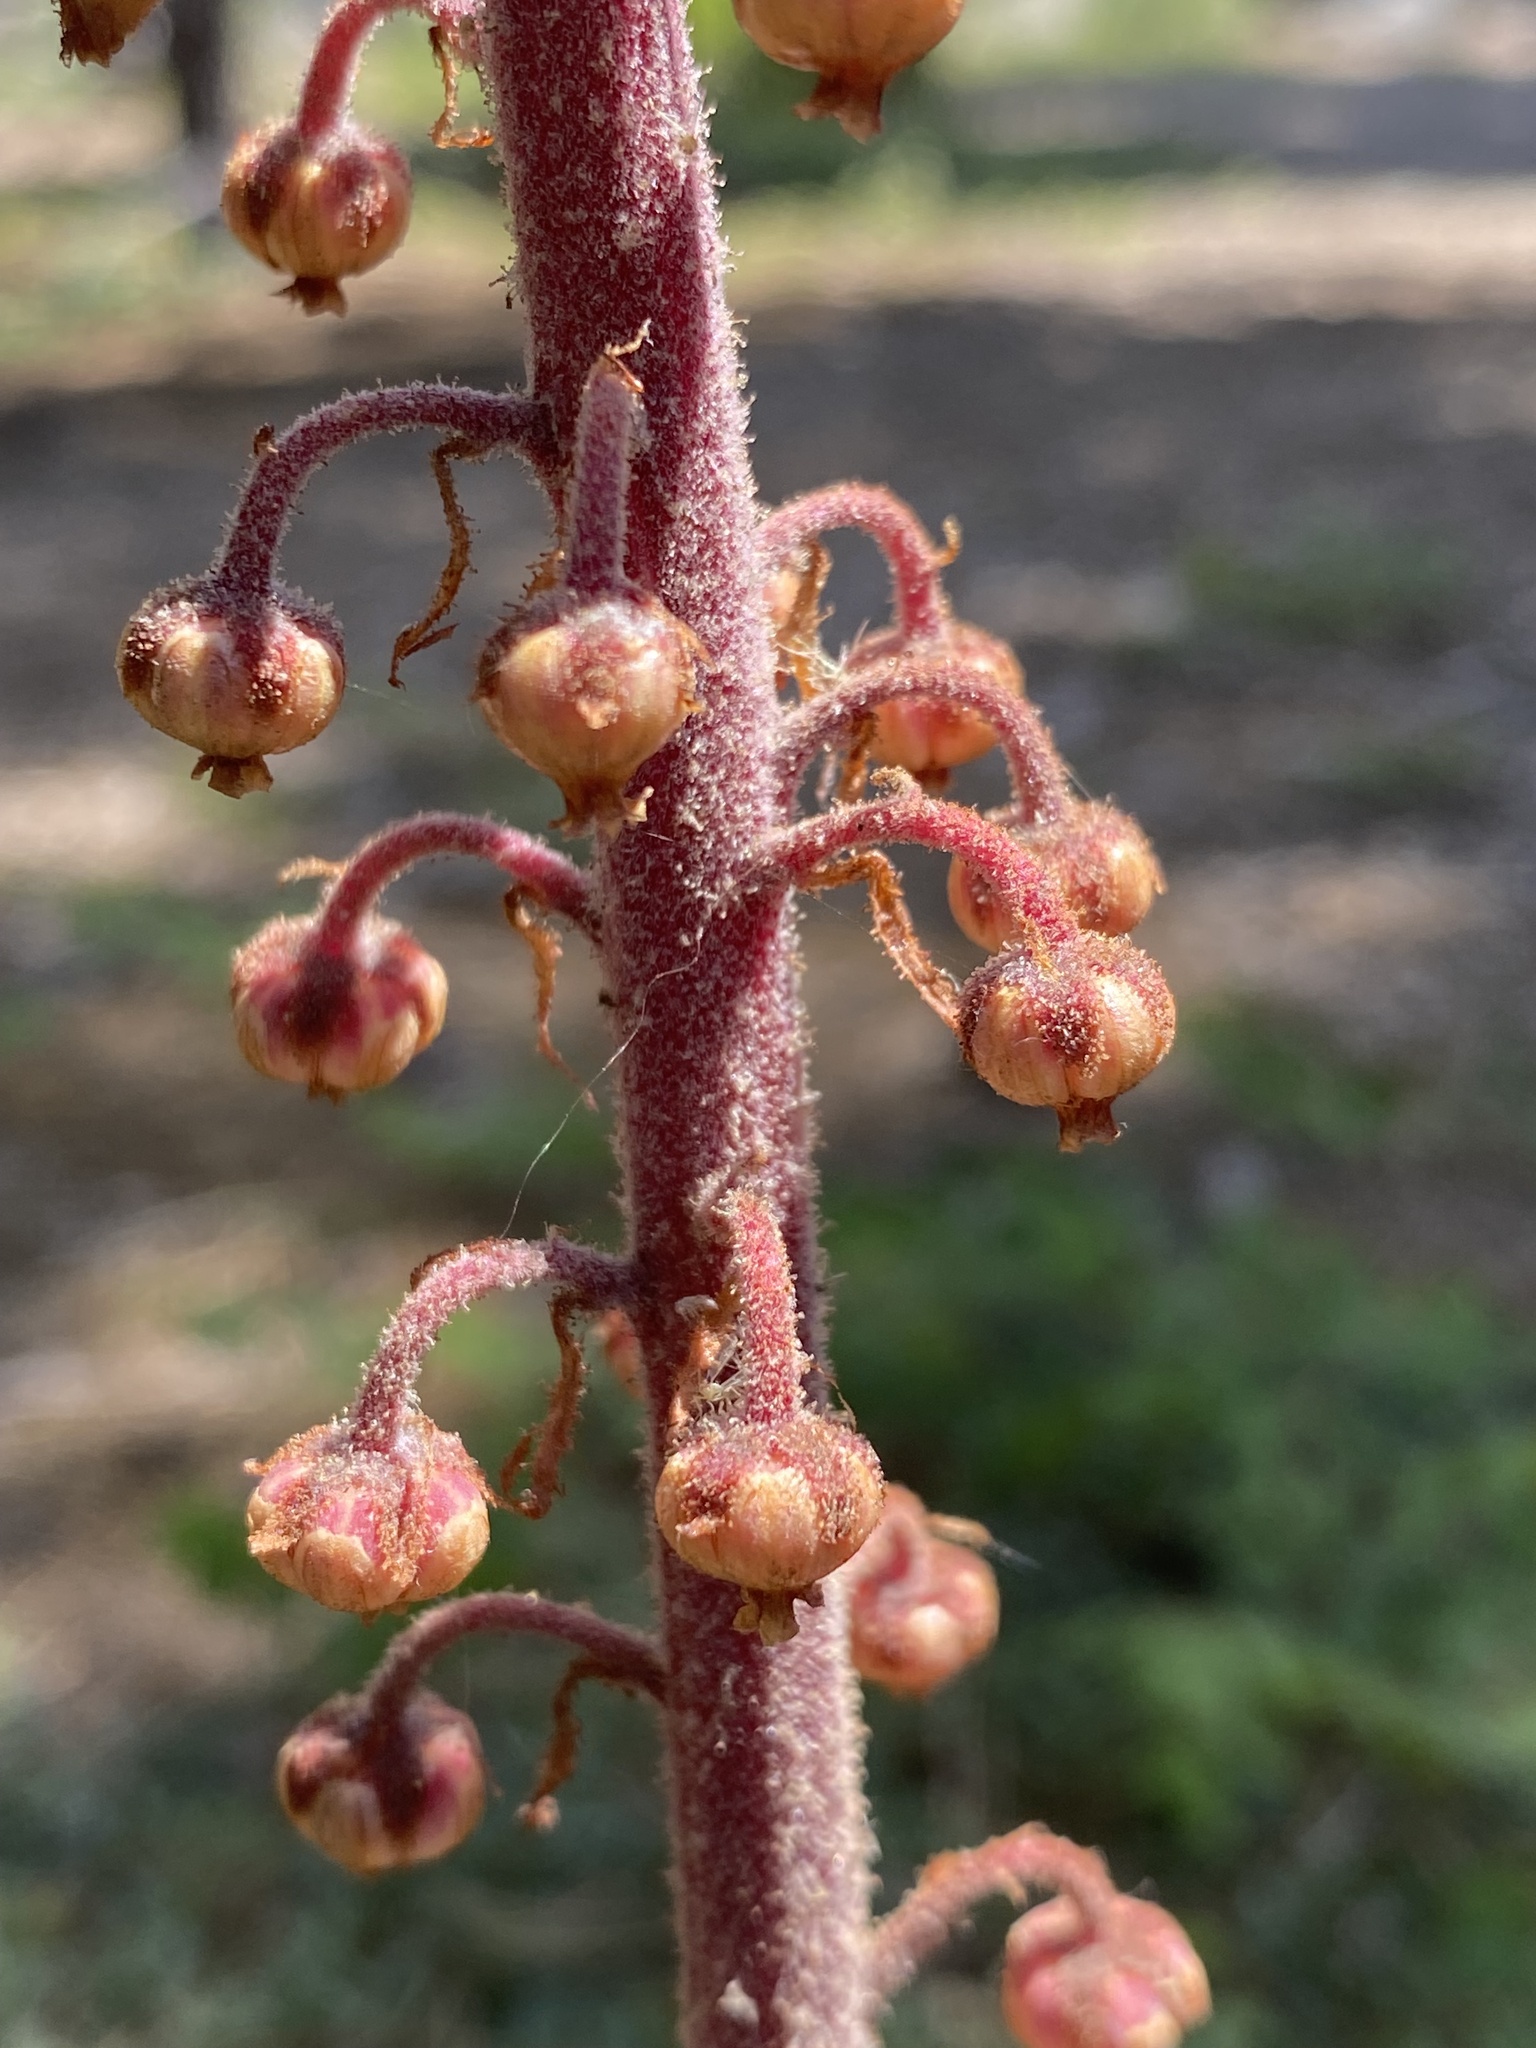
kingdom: Plantae
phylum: Tracheophyta
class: Magnoliopsida
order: Ericales
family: Ericaceae
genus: Pterospora
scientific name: Pterospora andromedea
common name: Giant bird's-nest
